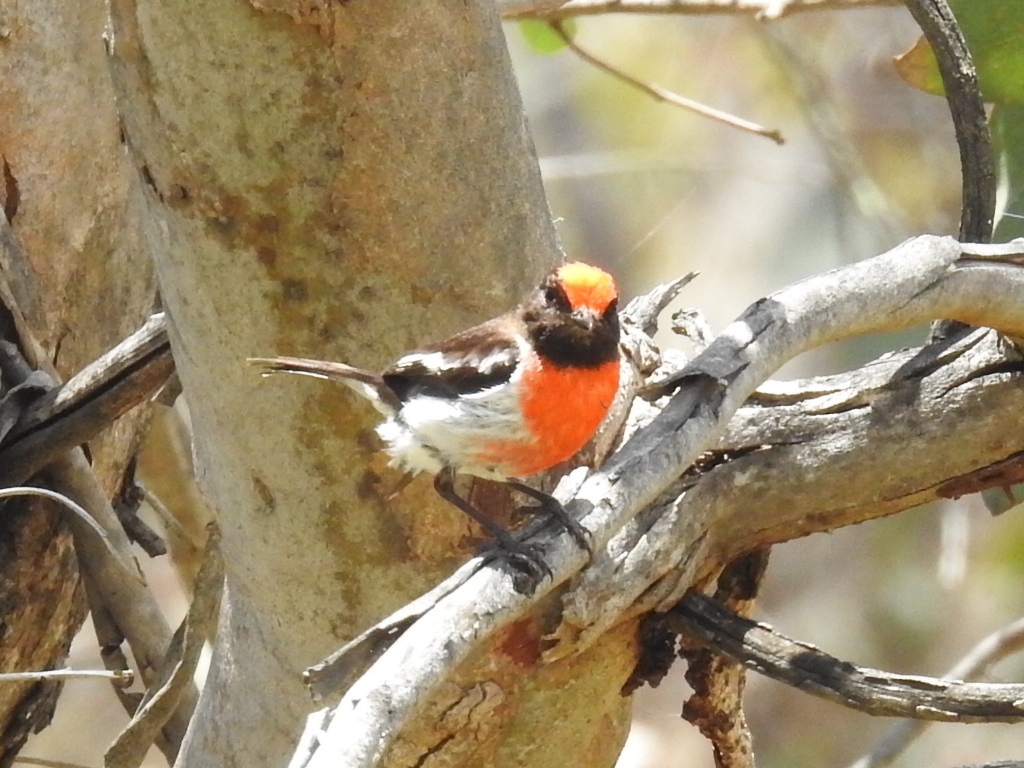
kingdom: Animalia
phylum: Chordata
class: Aves
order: Passeriformes
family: Petroicidae
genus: Petroica
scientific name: Petroica goodenovii
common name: Red-capped robin
